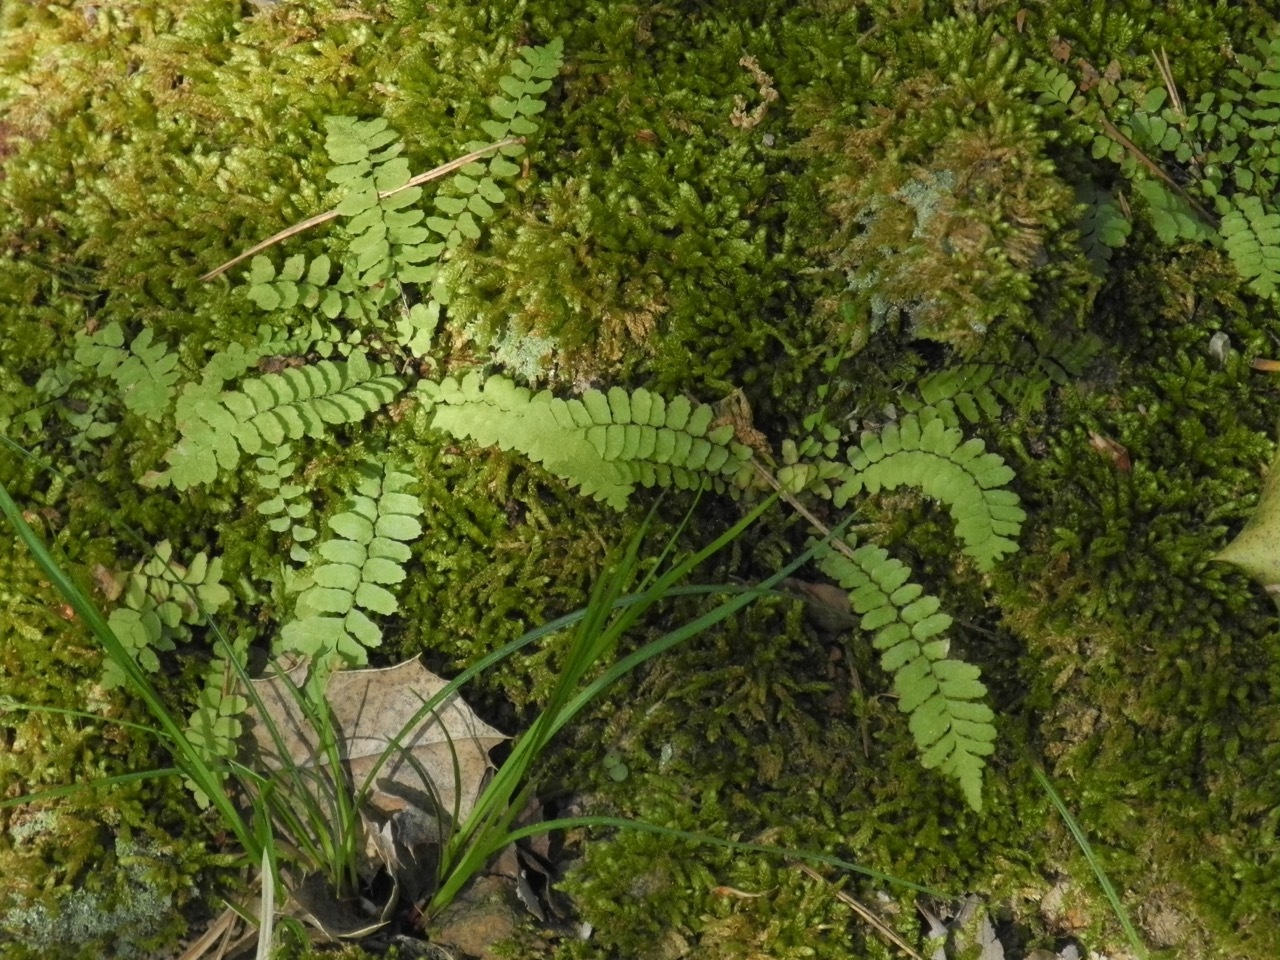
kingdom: Plantae
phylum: Tracheophyta
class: Polypodiopsida
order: Polypodiales
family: Aspleniaceae
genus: Asplenium
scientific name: Asplenium platyneuron
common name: Ebony spleenwort
